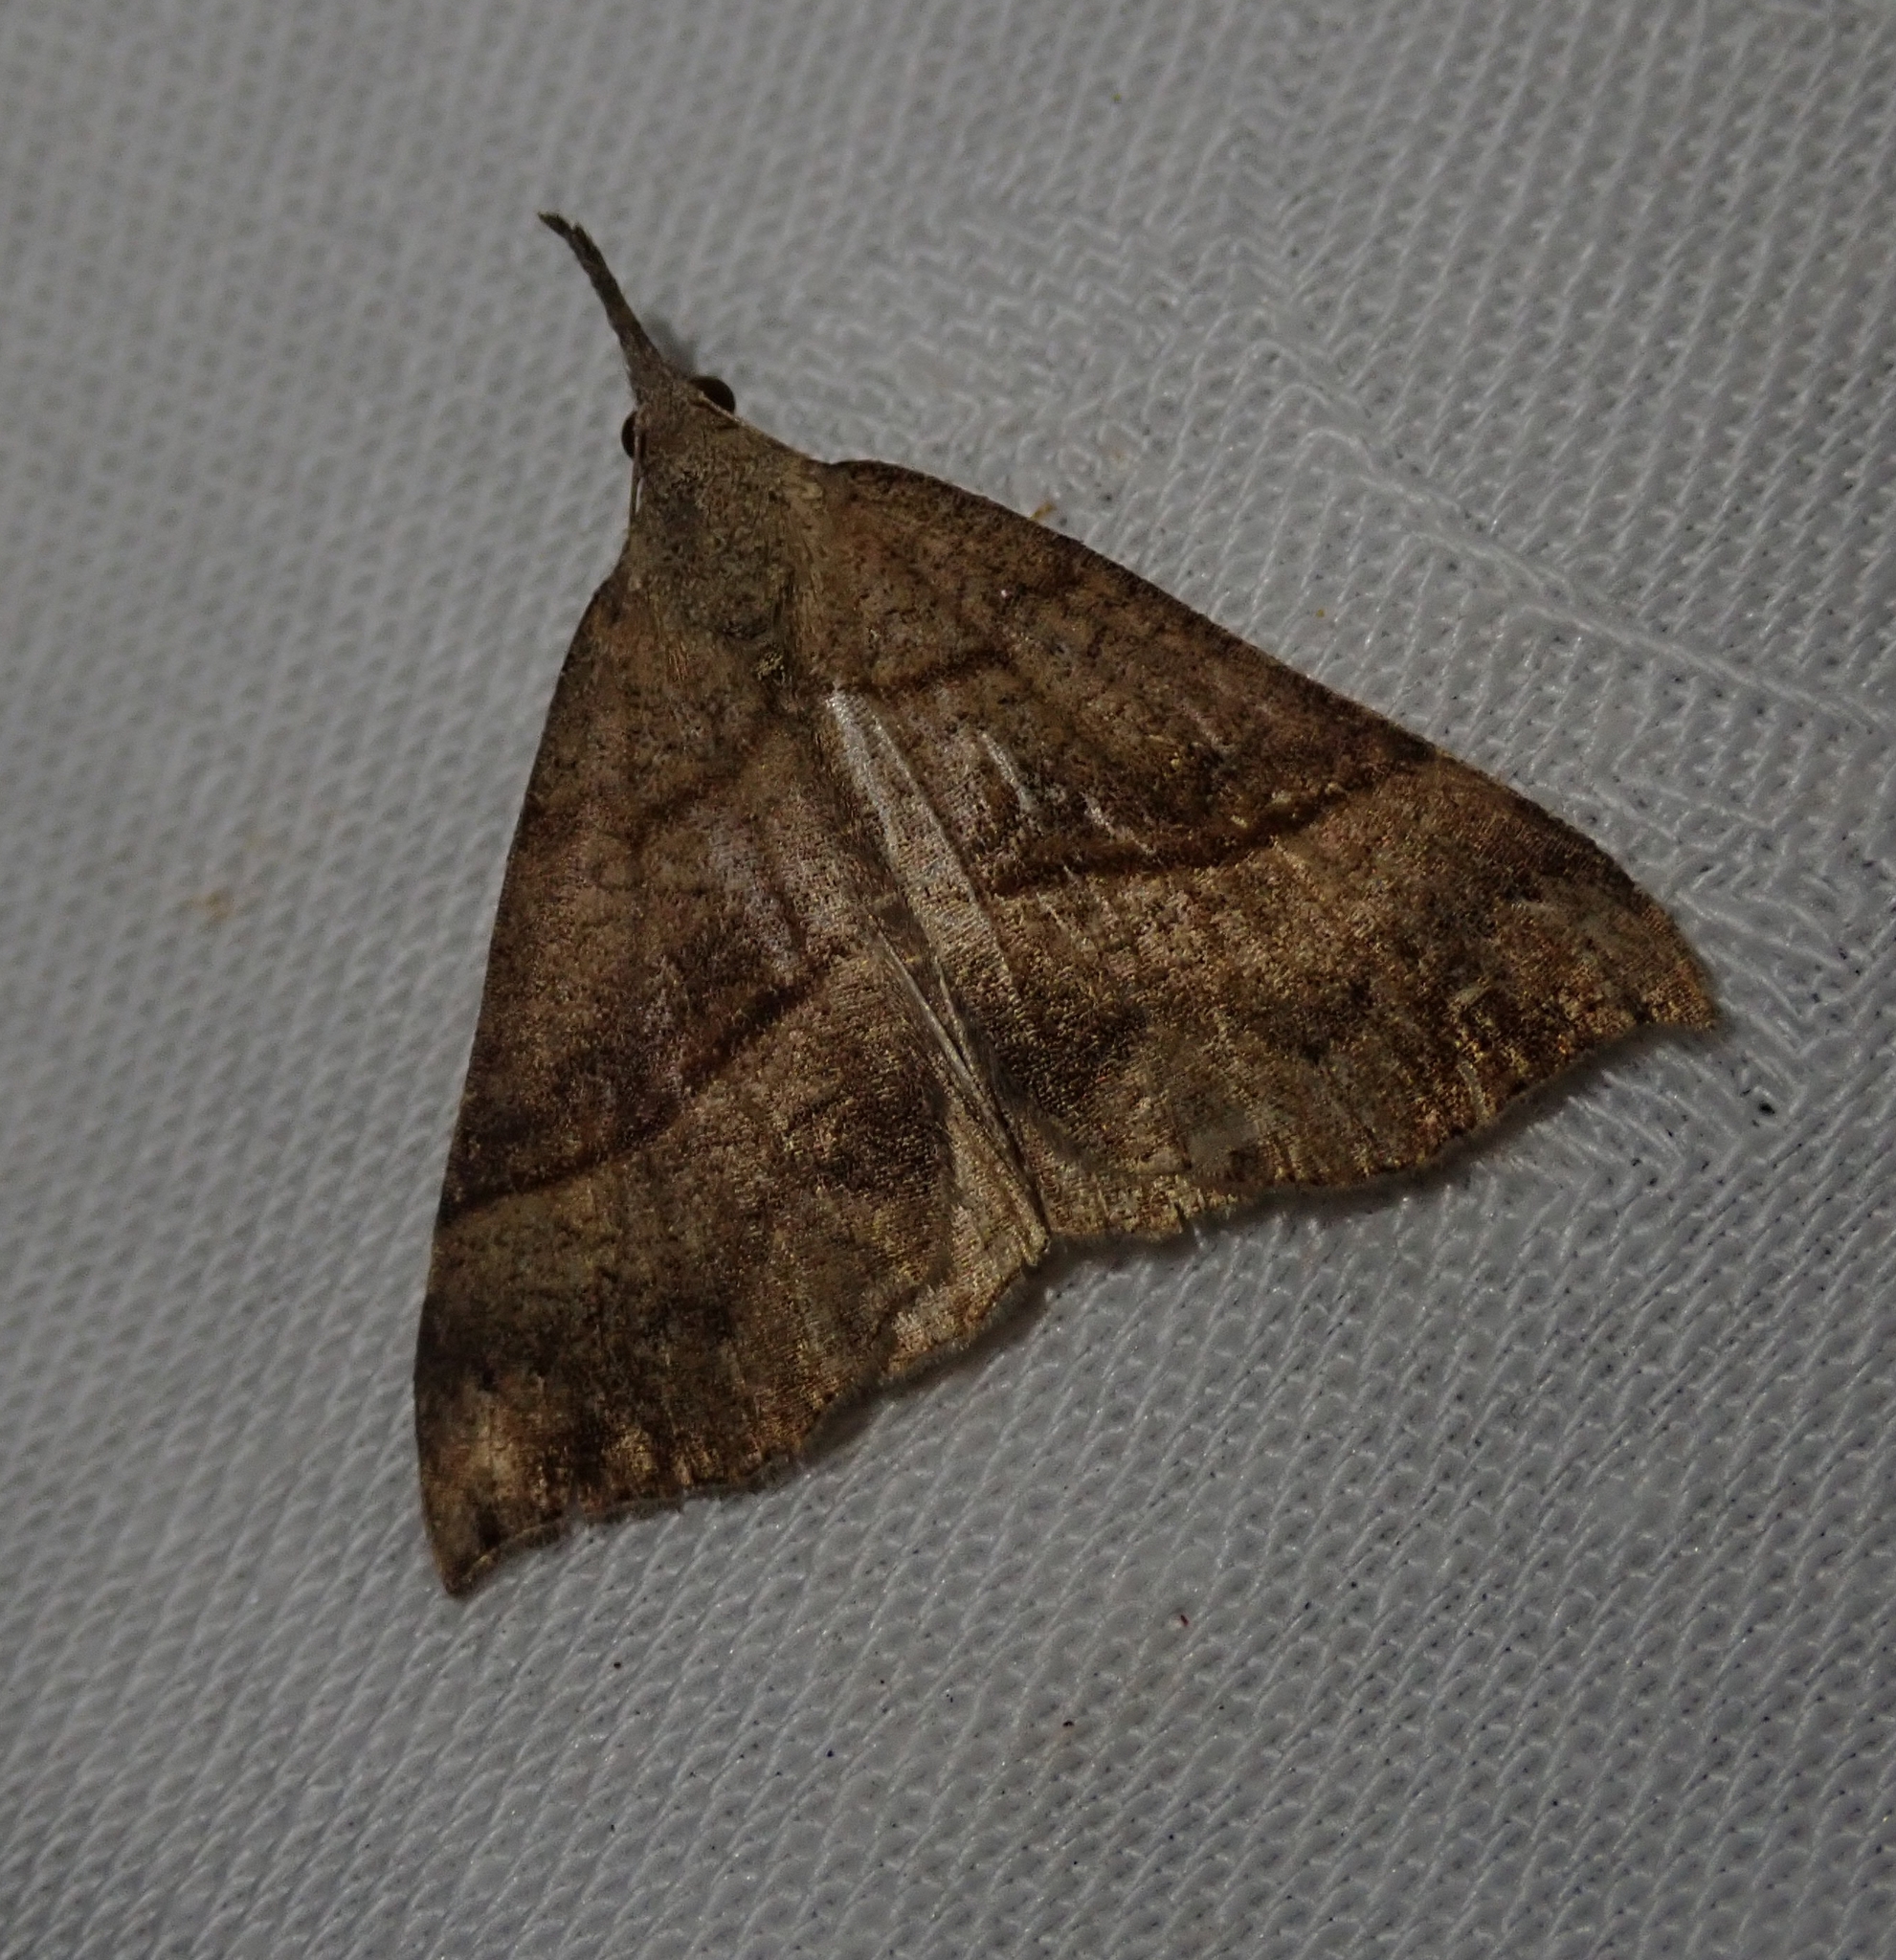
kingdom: Animalia
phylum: Arthropoda
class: Insecta
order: Lepidoptera
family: Erebidae
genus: Hypena
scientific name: Hypena proboscidalis
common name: Snout
